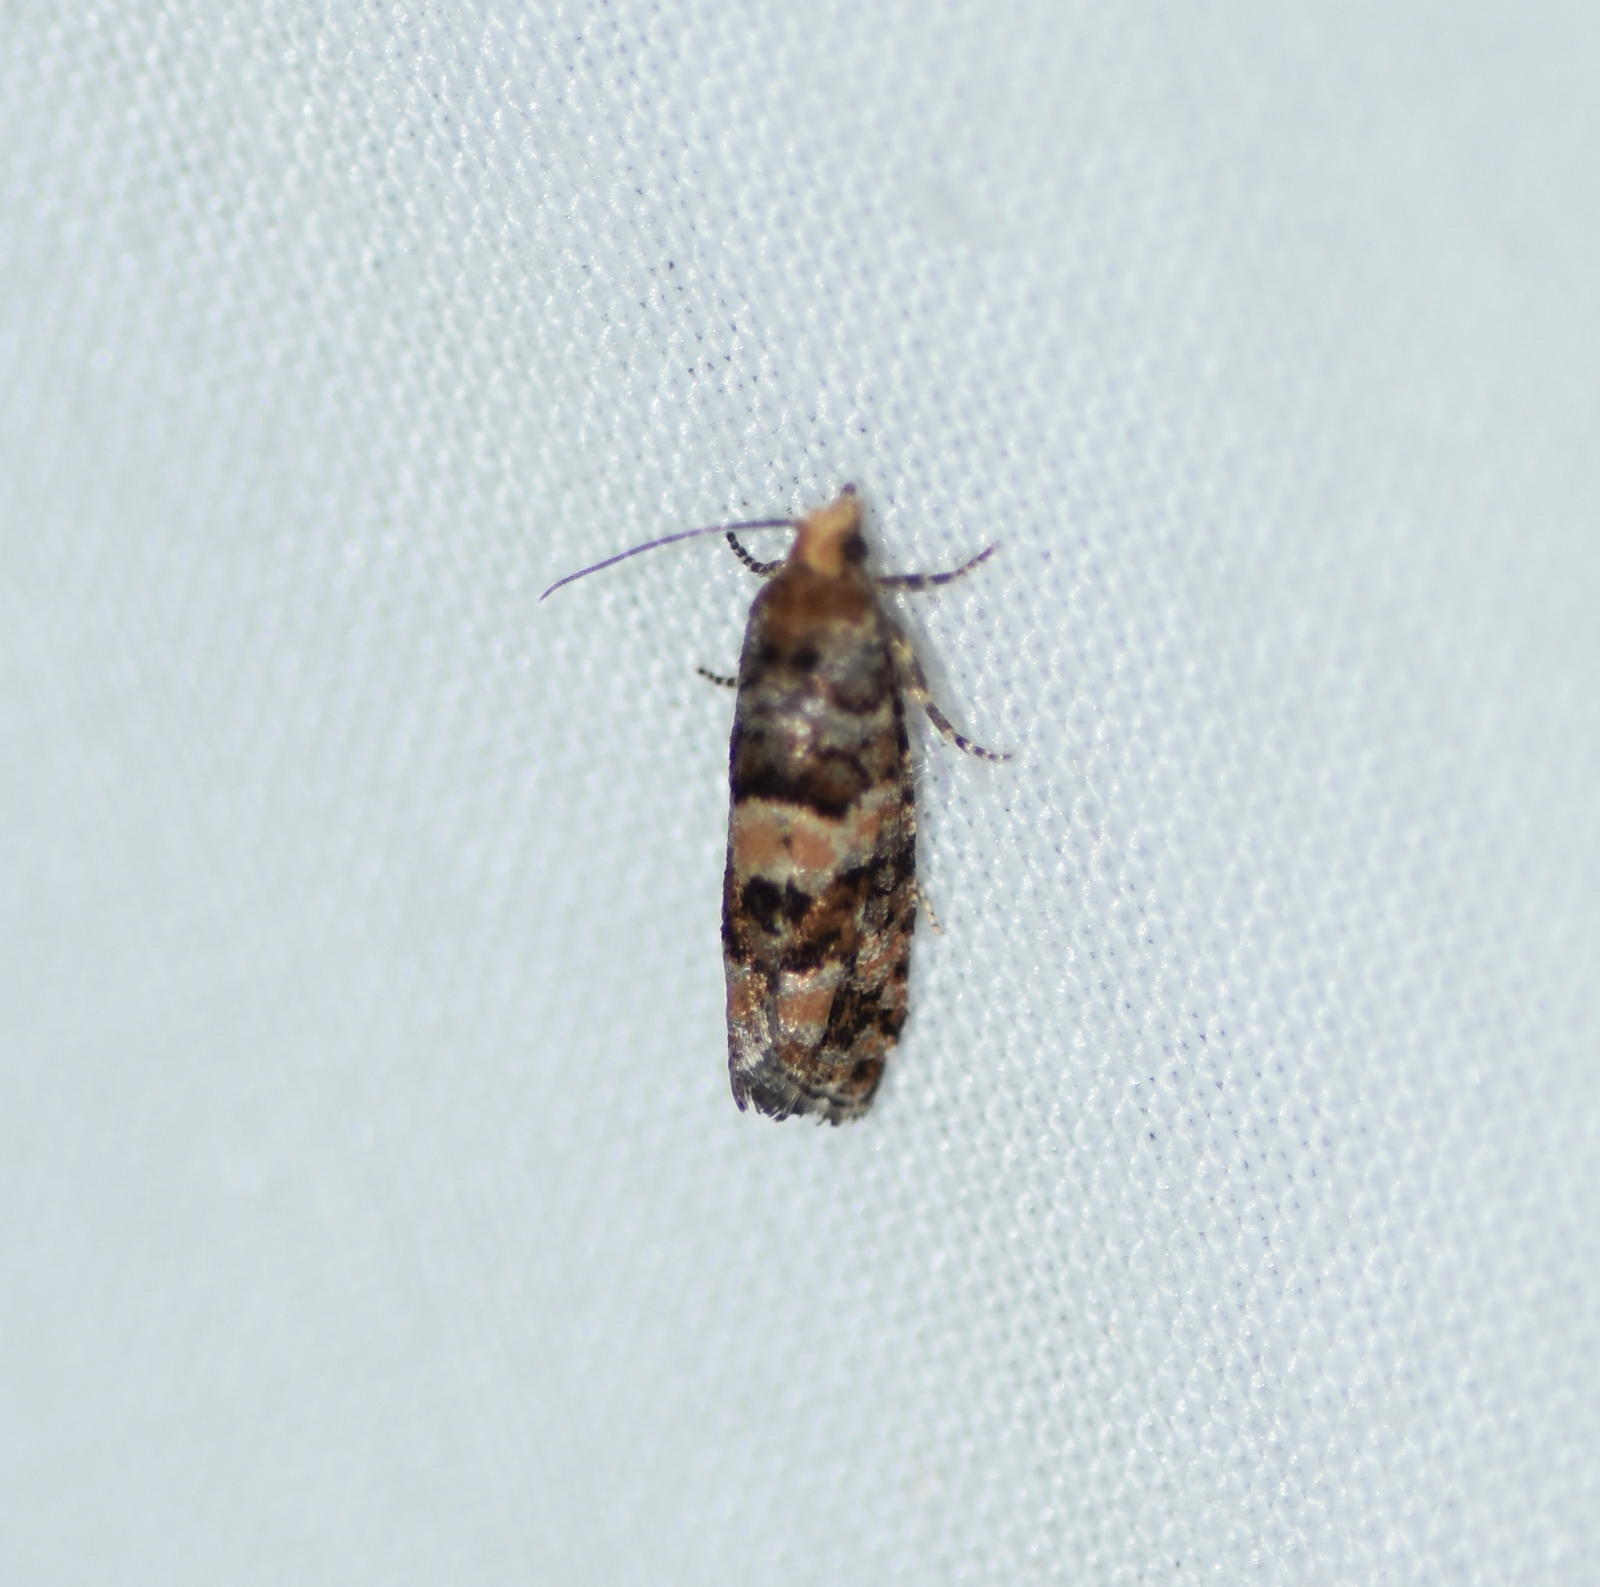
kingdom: Animalia
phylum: Arthropoda
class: Insecta
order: Lepidoptera
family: Tortricidae
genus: Eucopina
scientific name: Eucopina tocullionana
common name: White pinecone borer moth
